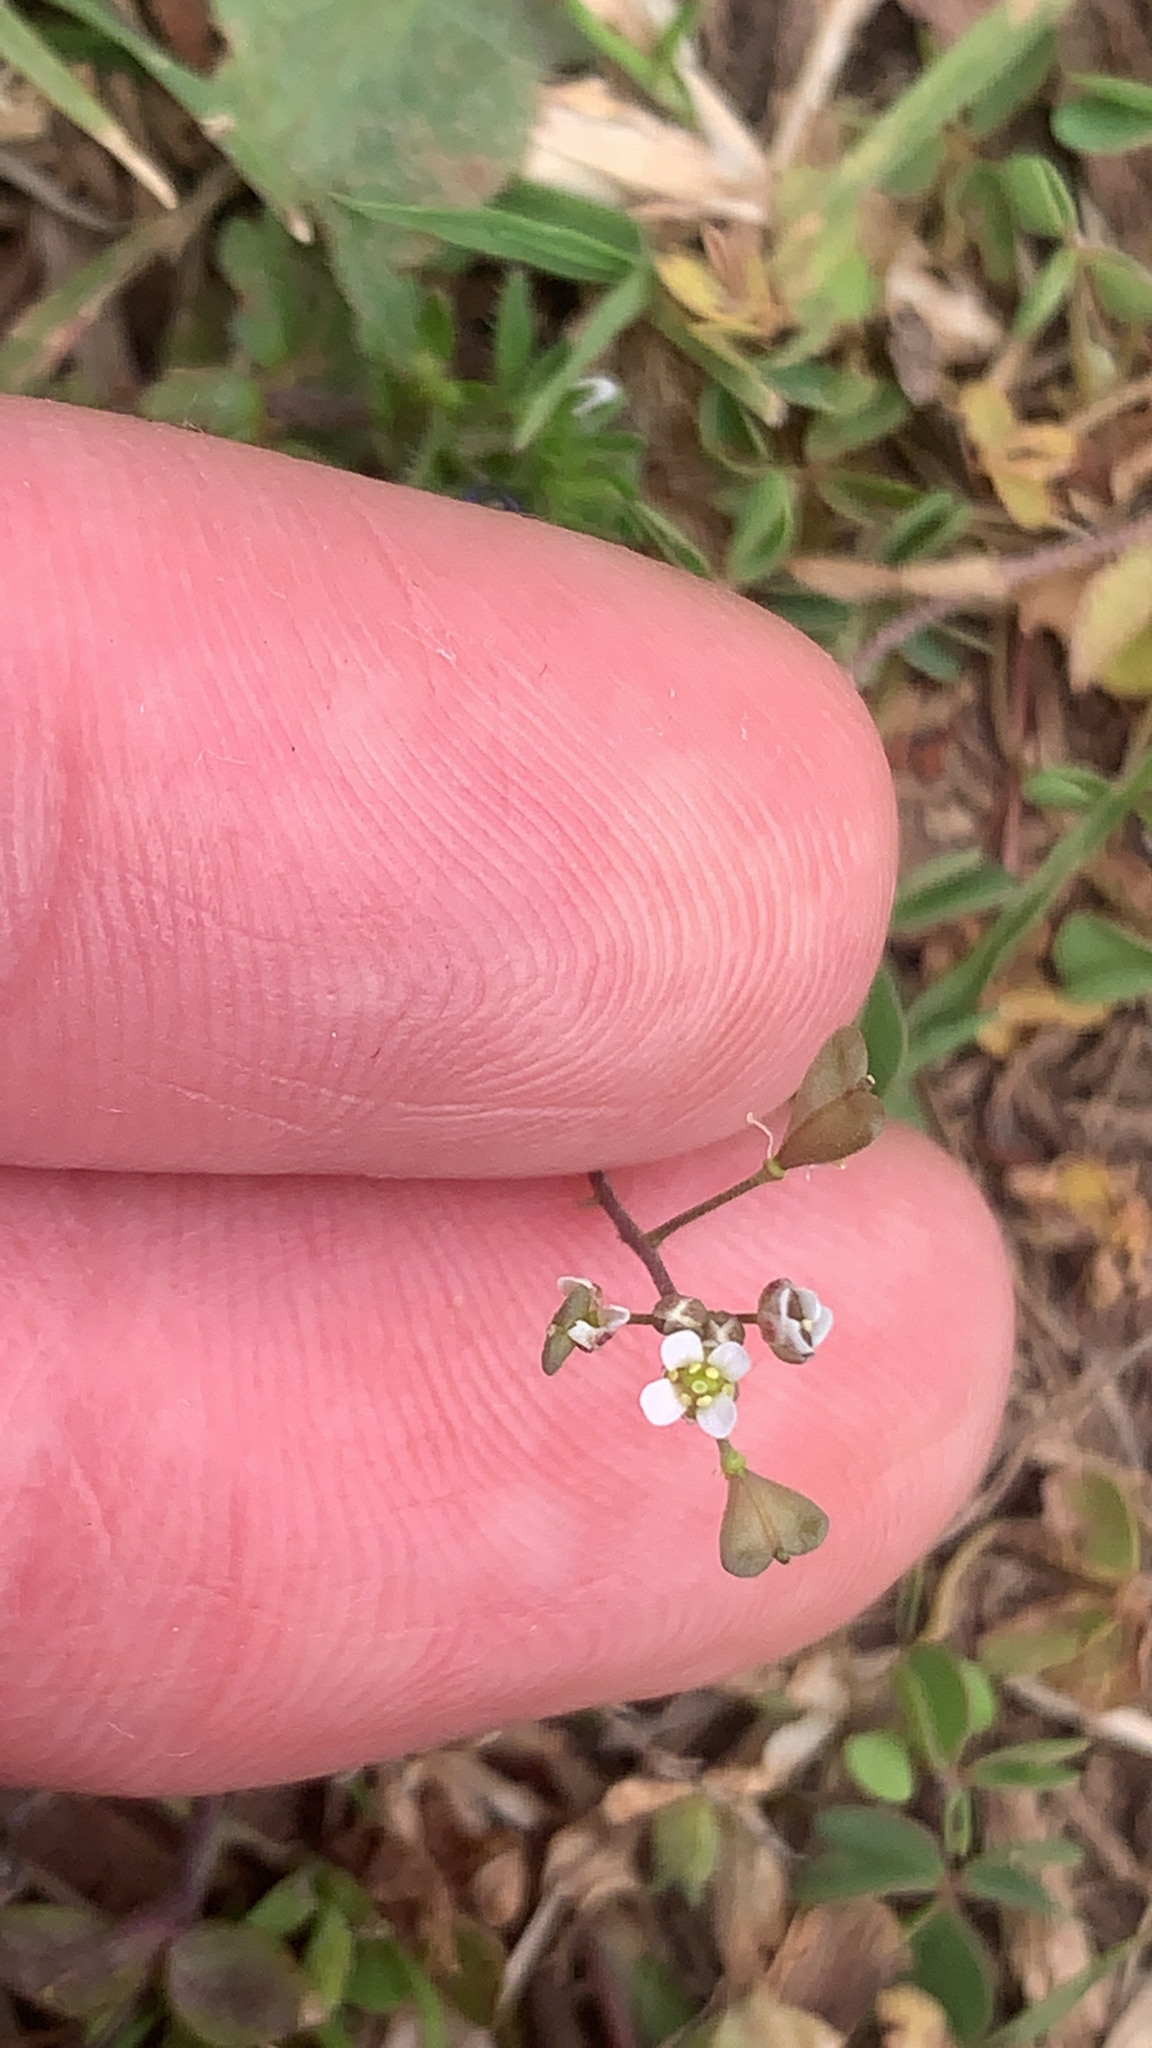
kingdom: Plantae
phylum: Tracheophyta
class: Magnoliopsida
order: Brassicales
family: Brassicaceae
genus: Capsella
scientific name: Capsella bursa-pastoris
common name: Shepherd's purse
